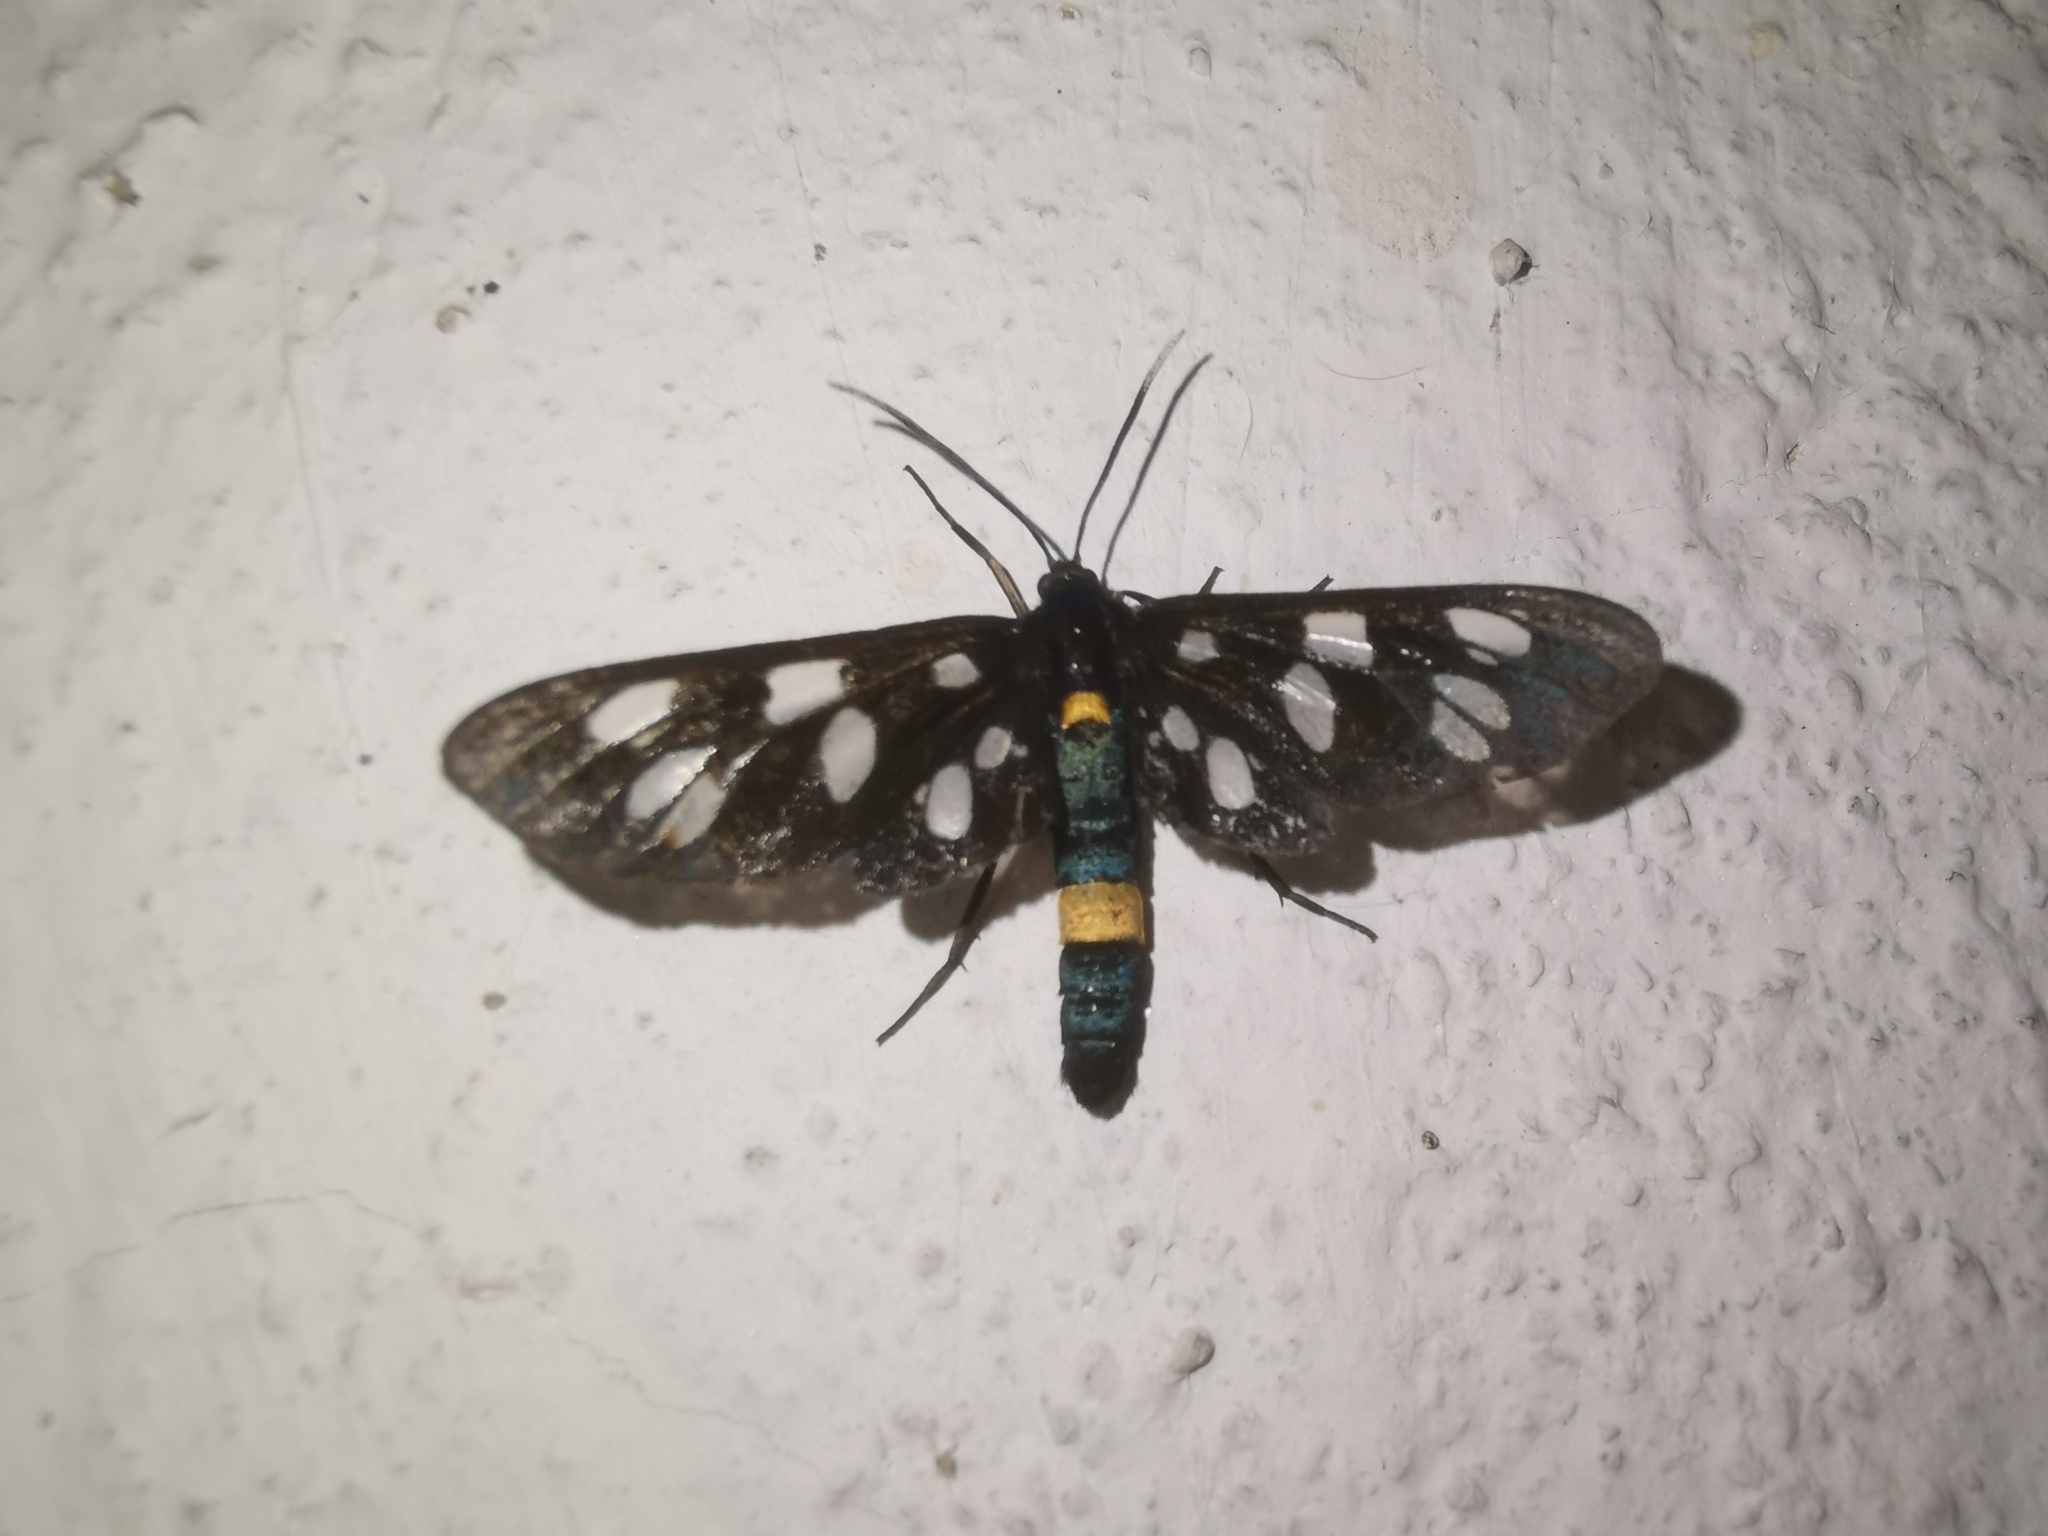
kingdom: Animalia
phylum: Arthropoda
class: Insecta
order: Lepidoptera
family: Erebidae
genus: Amata
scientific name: Amata phegea
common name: Nine-spotted
